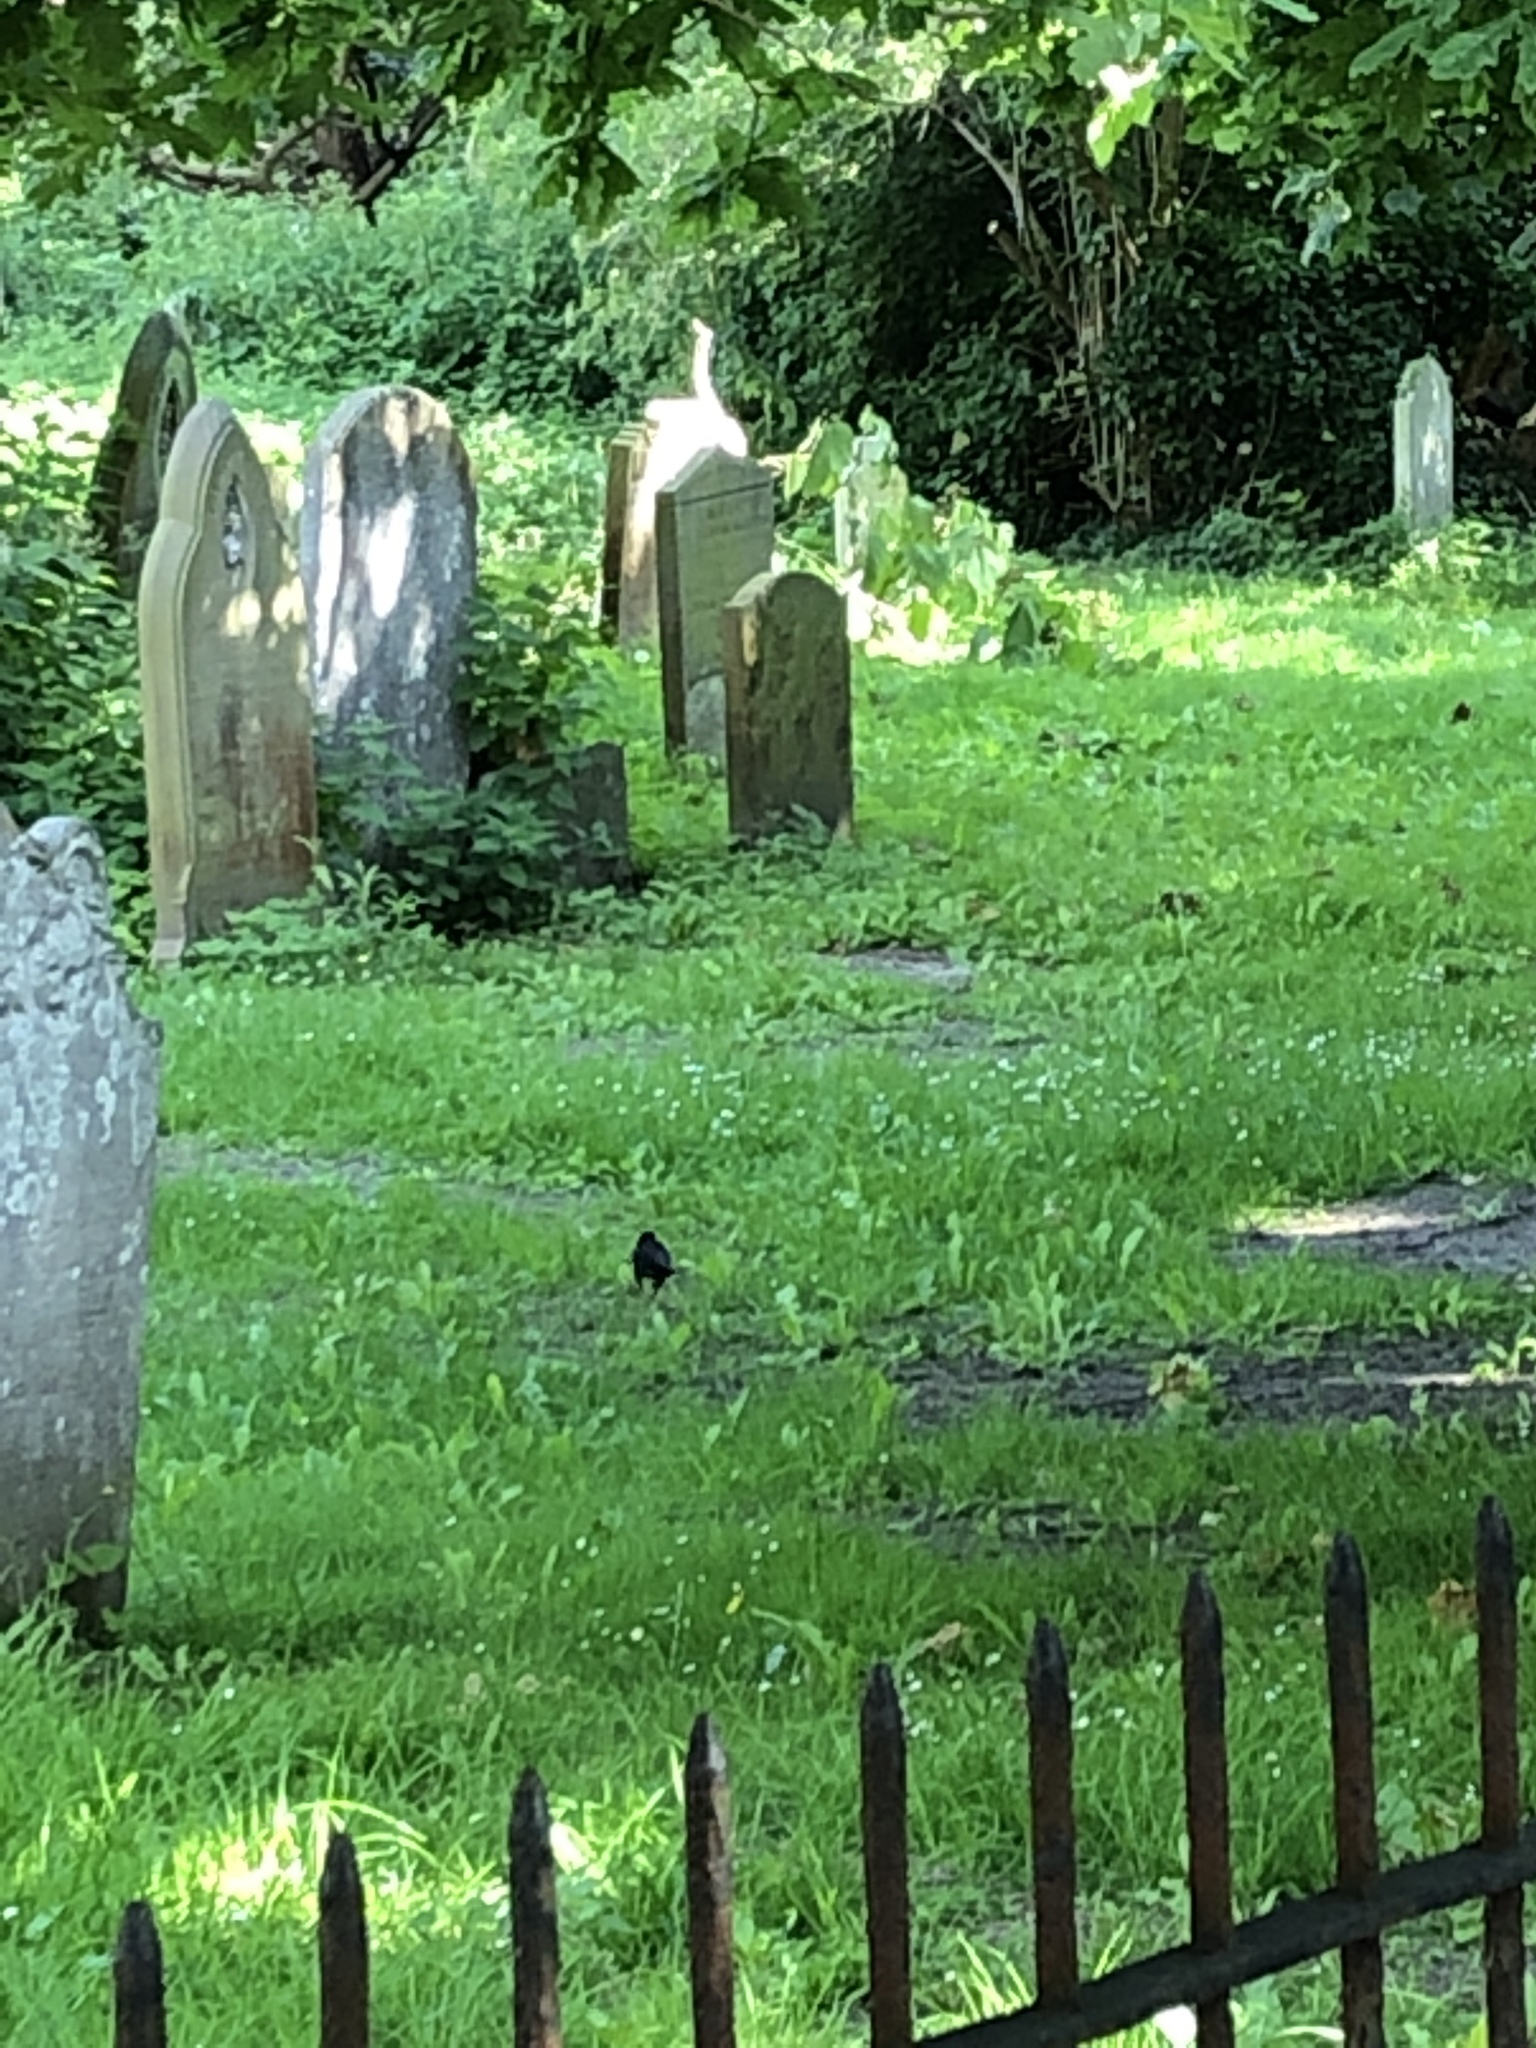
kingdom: Animalia
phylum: Chordata
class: Aves
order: Passeriformes
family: Turdidae
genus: Turdus
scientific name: Turdus merula
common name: Common blackbird
